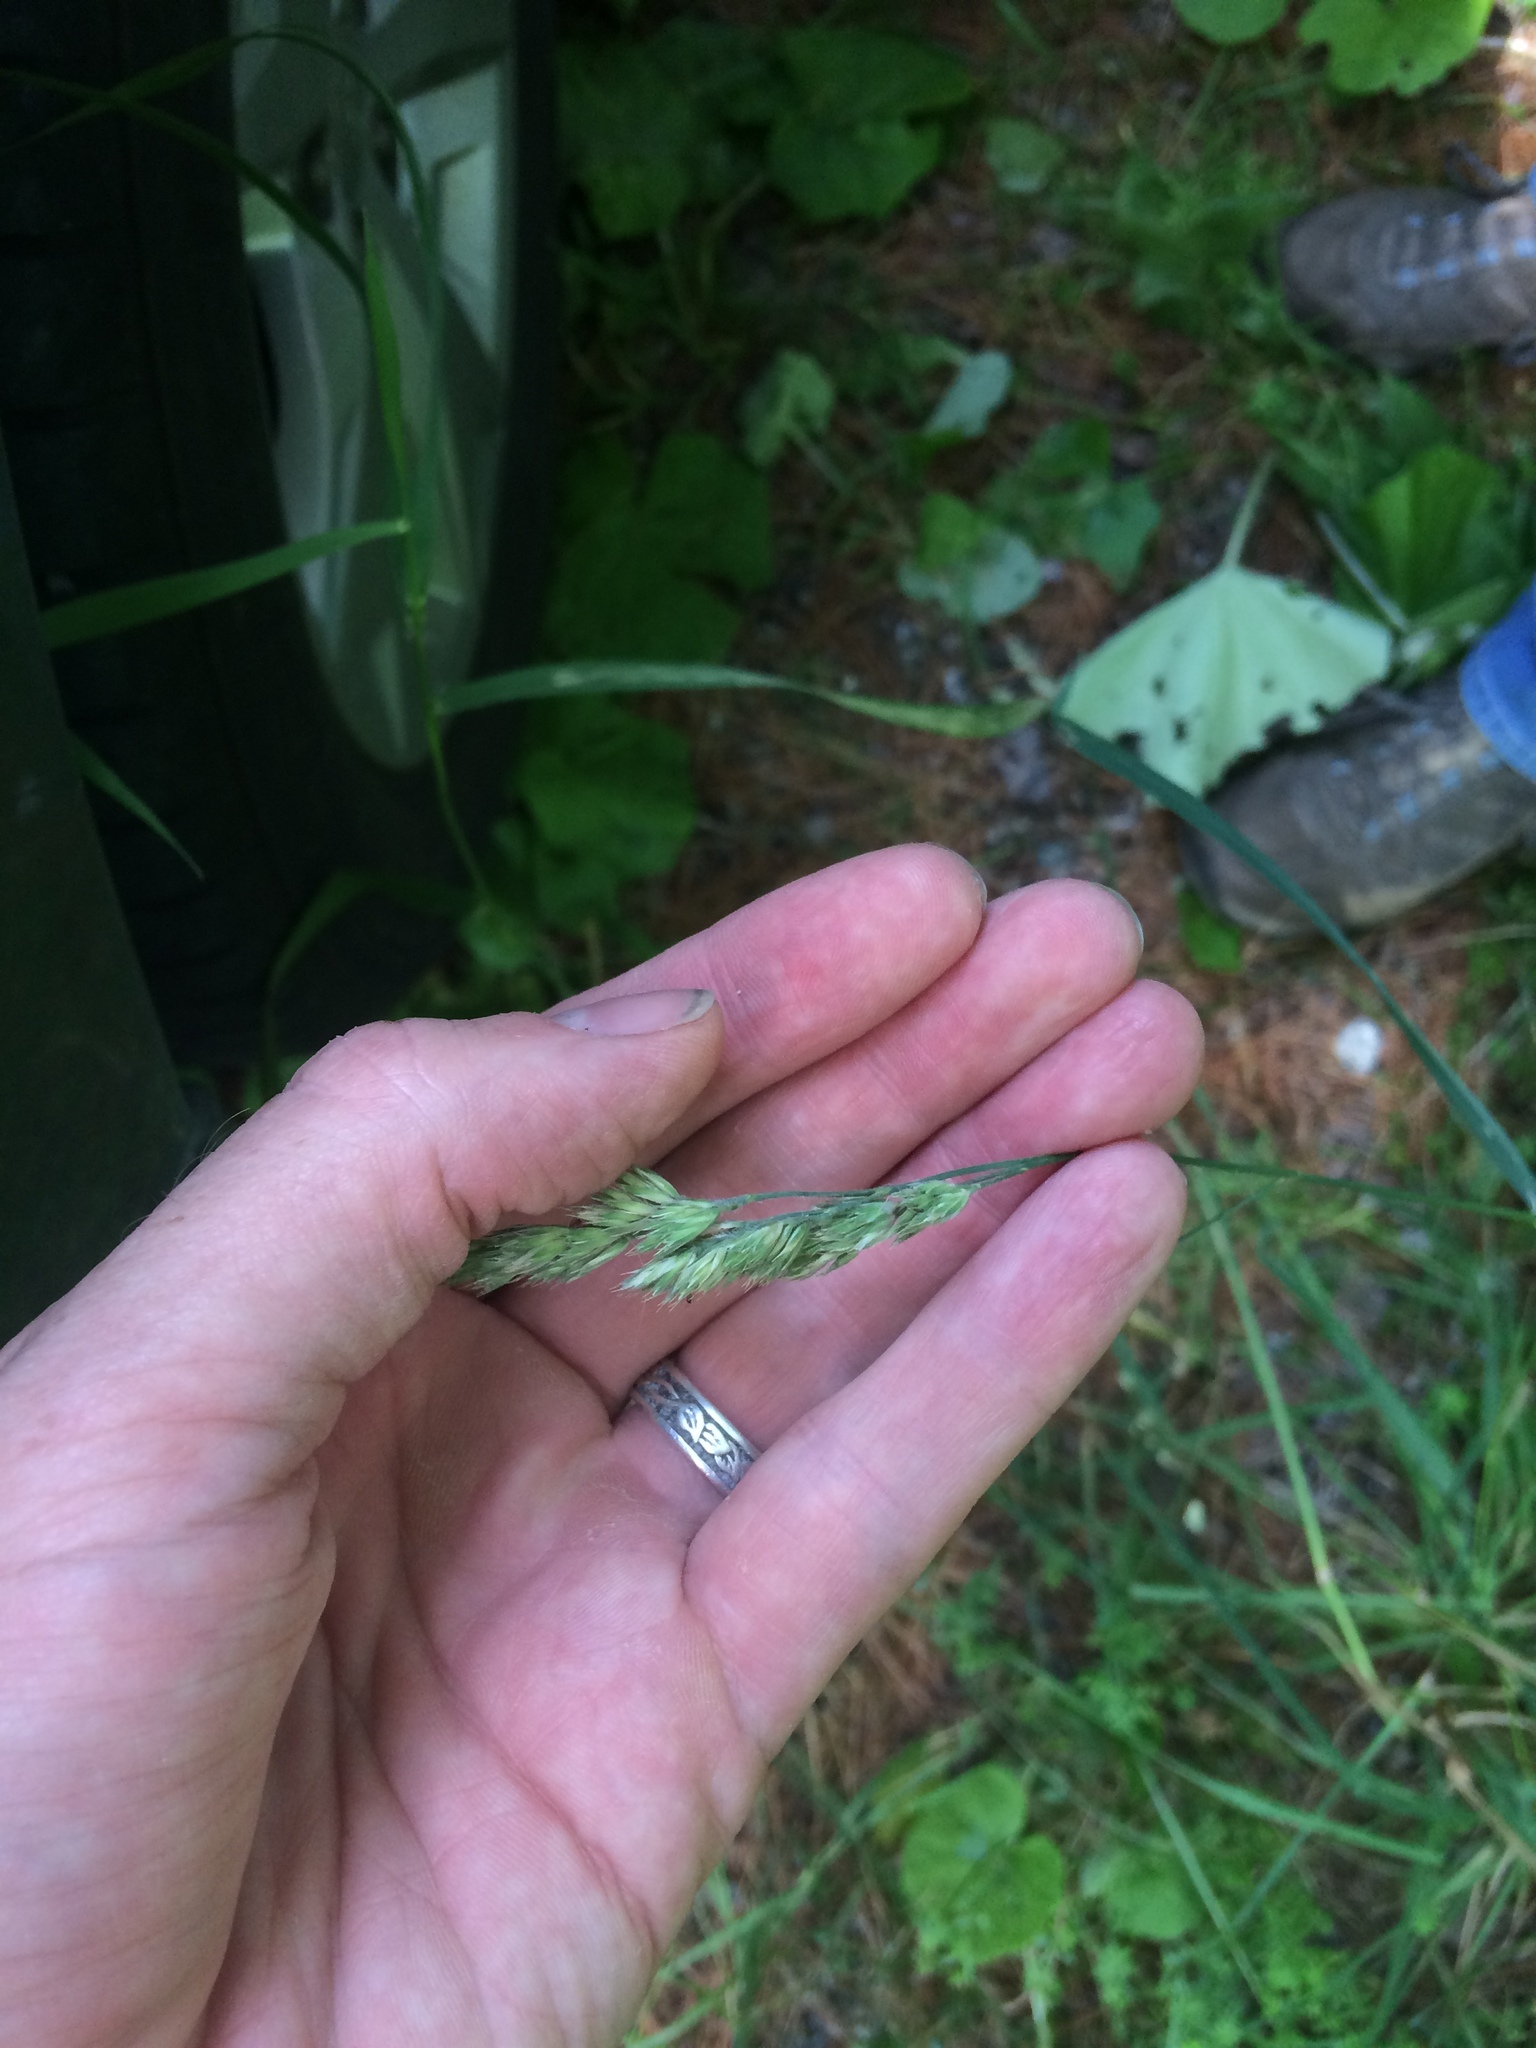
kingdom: Plantae
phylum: Tracheophyta
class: Liliopsida
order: Poales
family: Poaceae
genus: Dactylis
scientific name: Dactylis glomerata
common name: Orchardgrass
